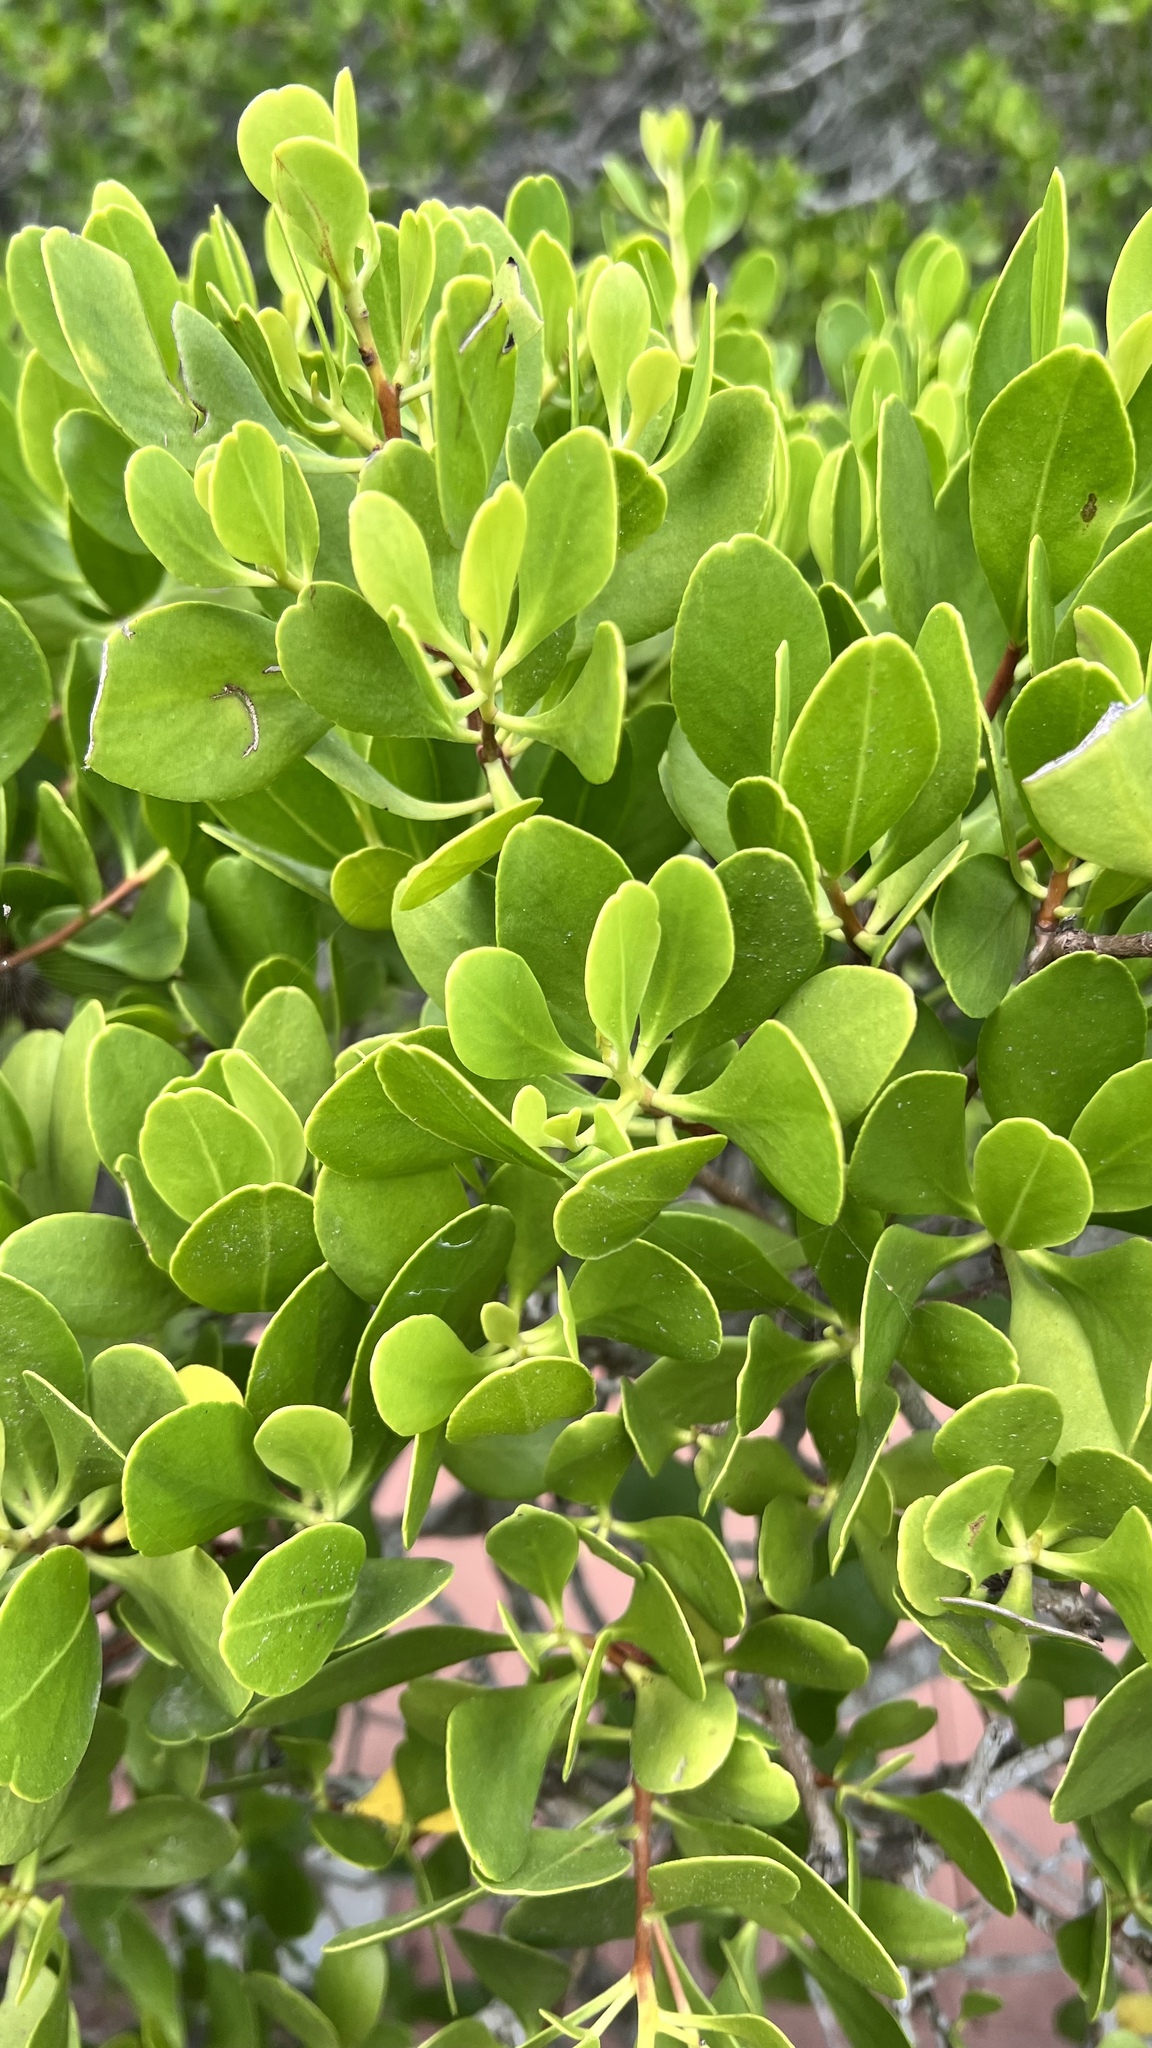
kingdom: Plantae
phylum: Tracheophyta
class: Magnoliopsida
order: Myrtales
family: Combretaceae
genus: Lumnitzera
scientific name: Lumnitzera racemosa
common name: White-flowered black mangrove
